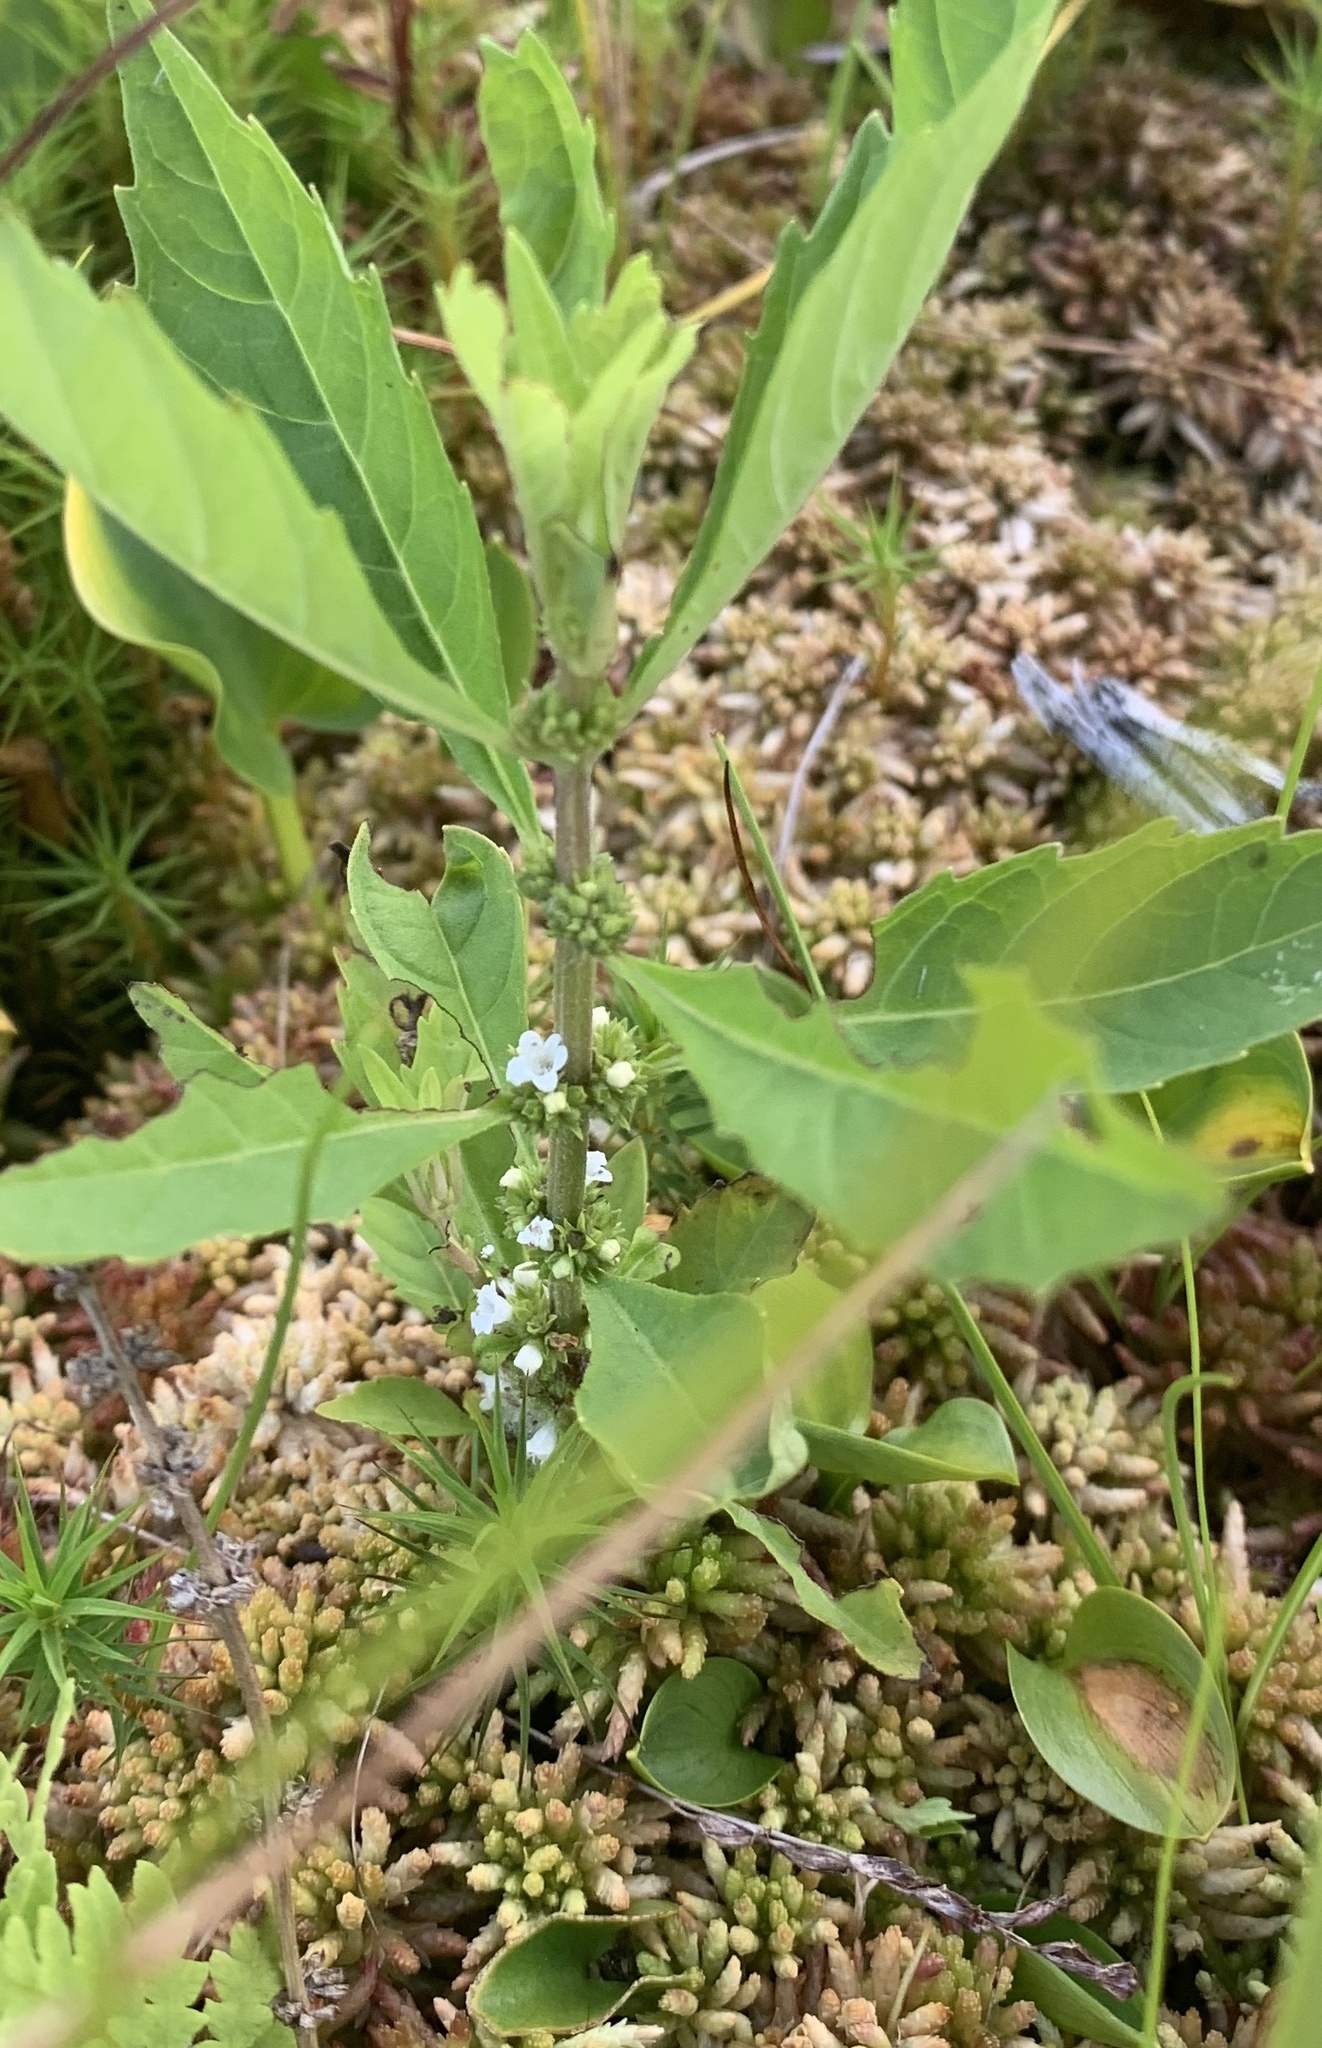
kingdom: Plantae
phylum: Tracheophyta
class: Magnoliopsida
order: Lamiales
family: Lamiaceae
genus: Lycopus
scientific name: Lycopus uniflorus
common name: Northern bugleweed
